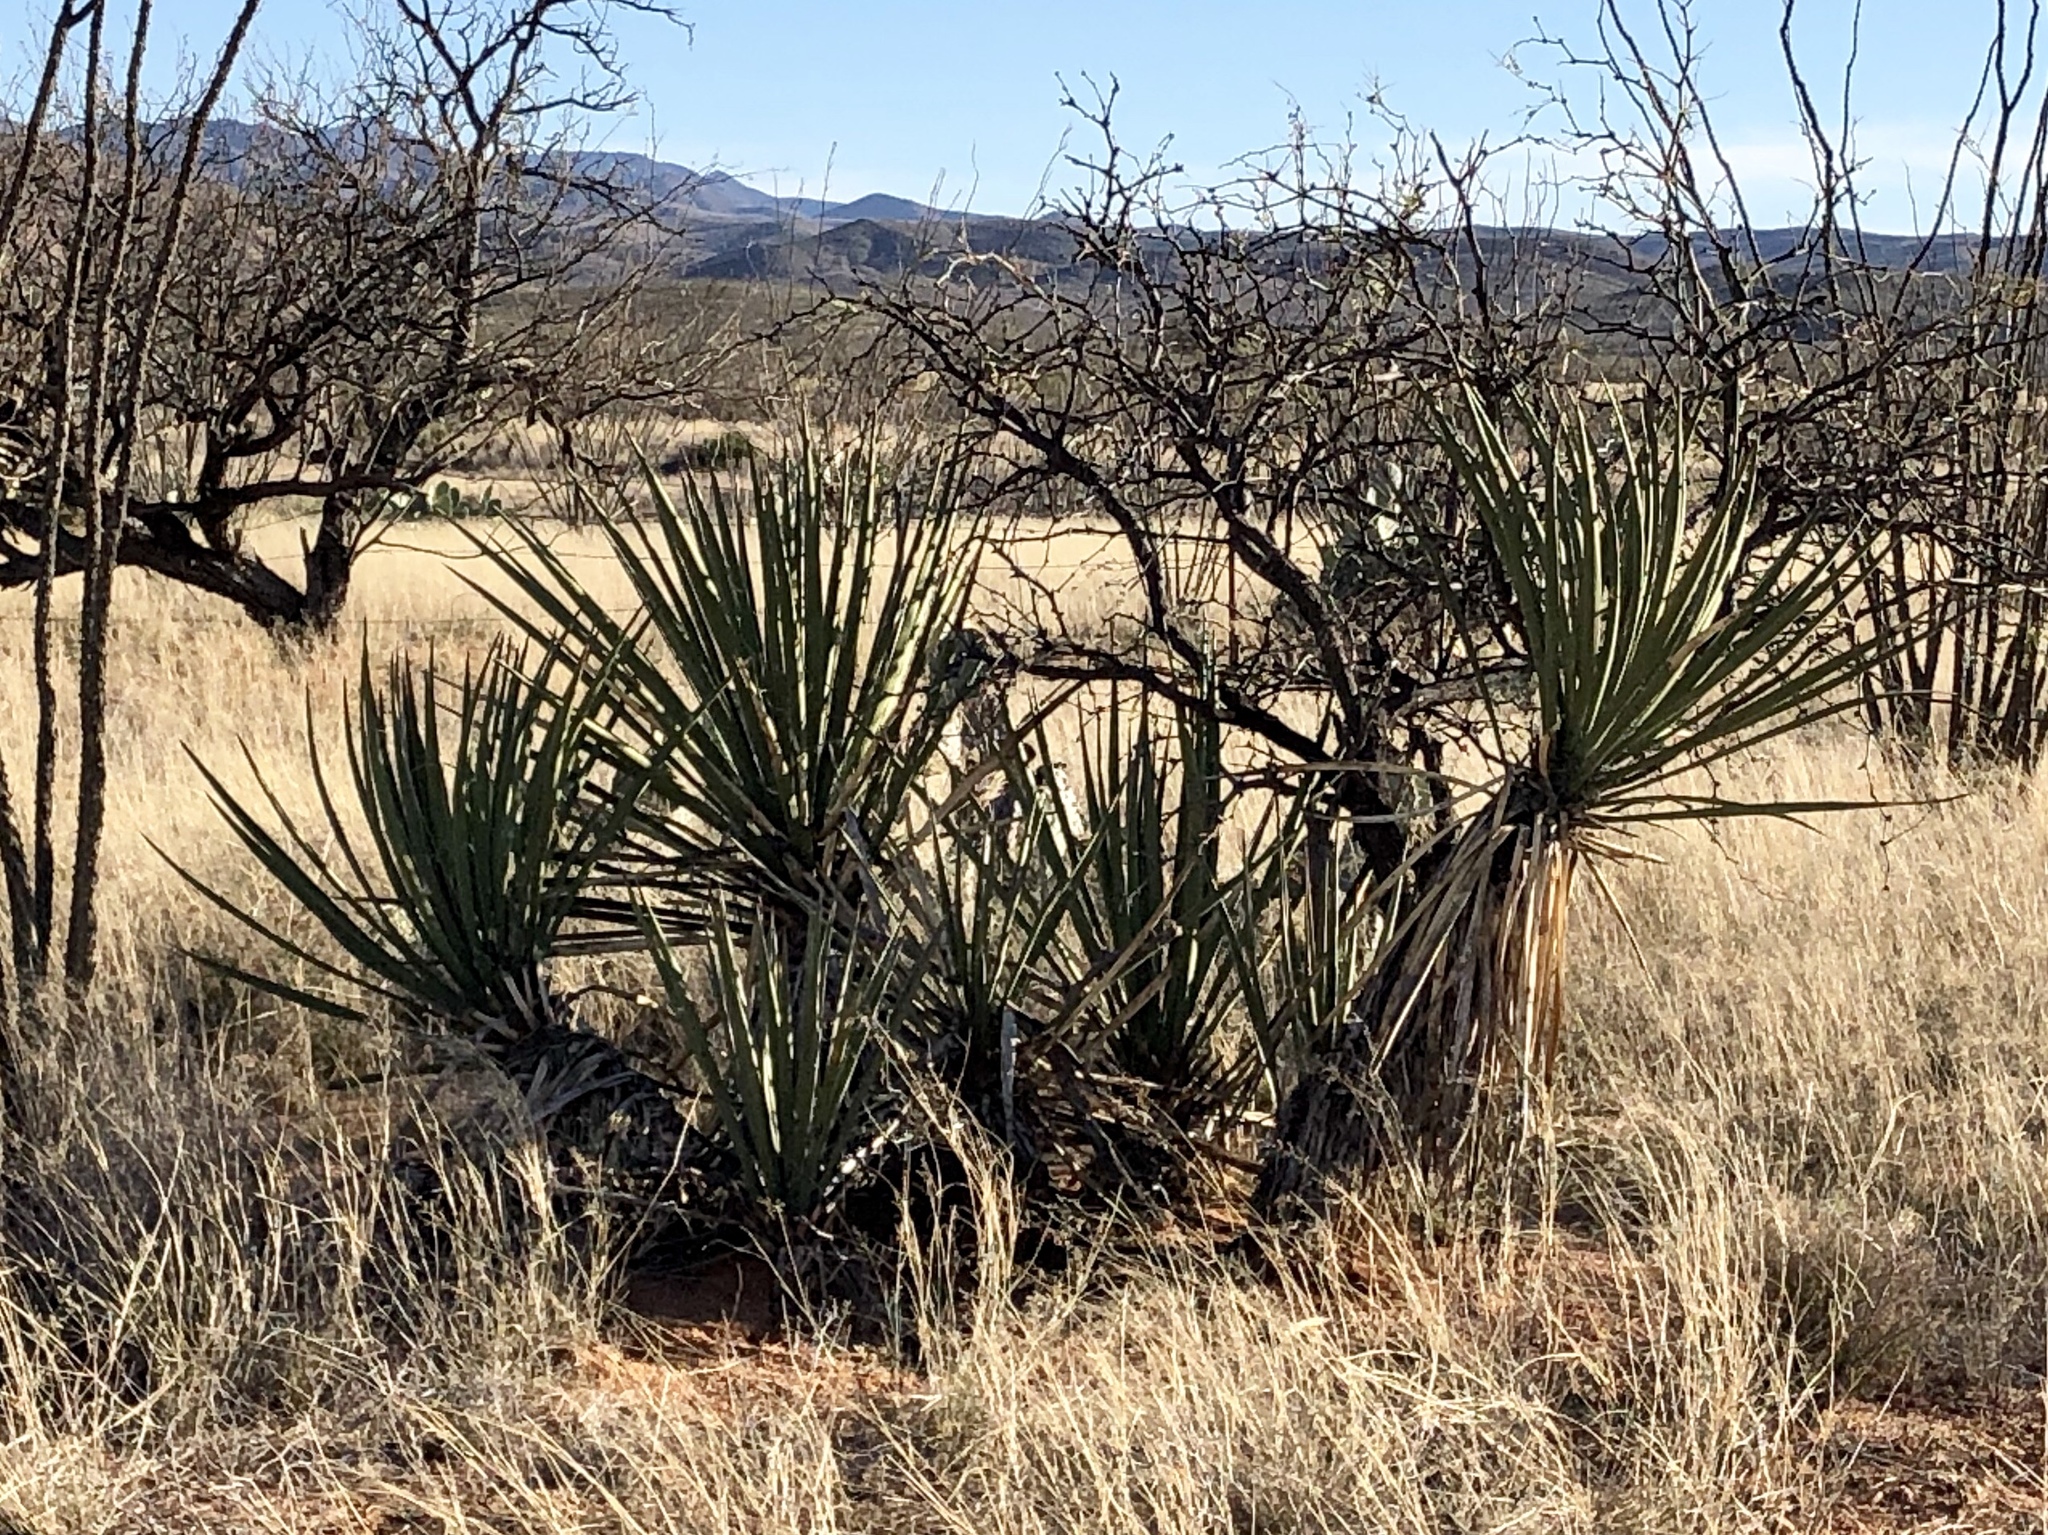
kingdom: Plantae
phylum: Tracheophyta
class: Liliopsida
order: Asparagales
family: Asparagaceae
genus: Yucca
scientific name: Yucca baccata
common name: Banana yucca
